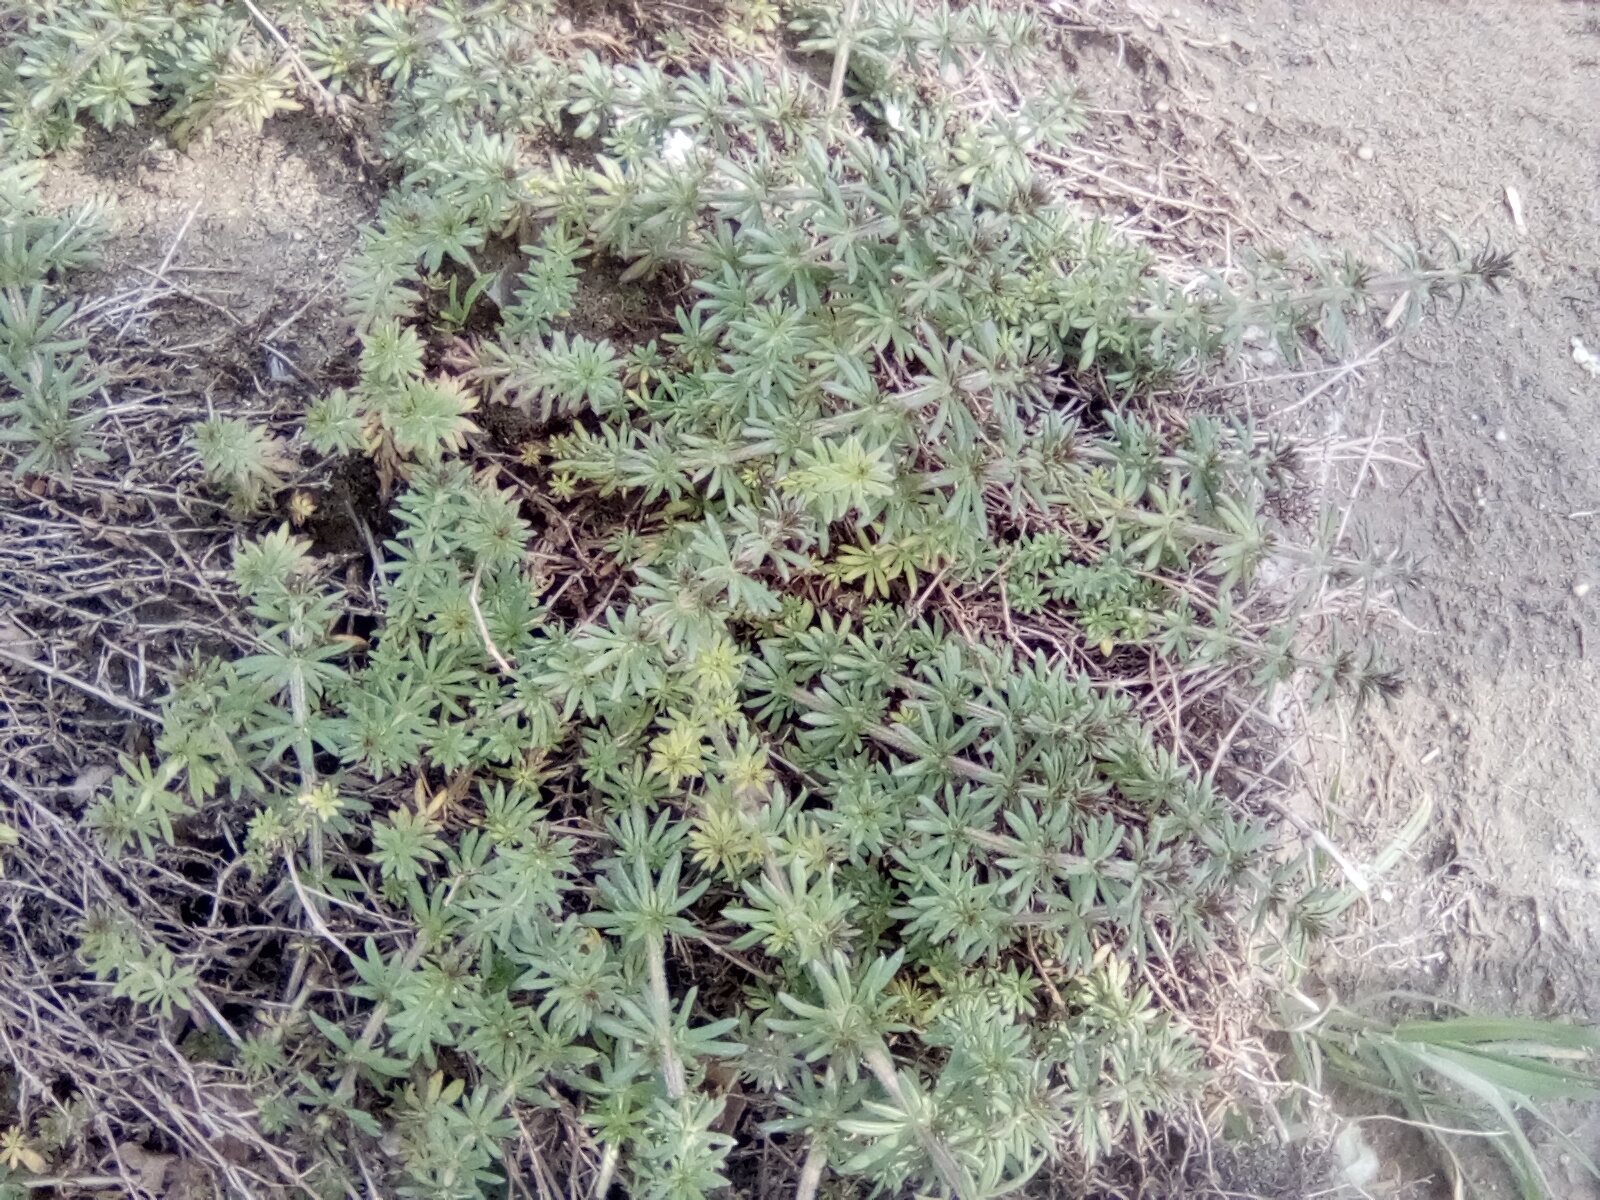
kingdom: Plantae
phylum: Tracheophyta
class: Magnoliopsida
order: Gentianales
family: Rubiaceae
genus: Galium
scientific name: Galium humifusum
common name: Spreading bedstraw
